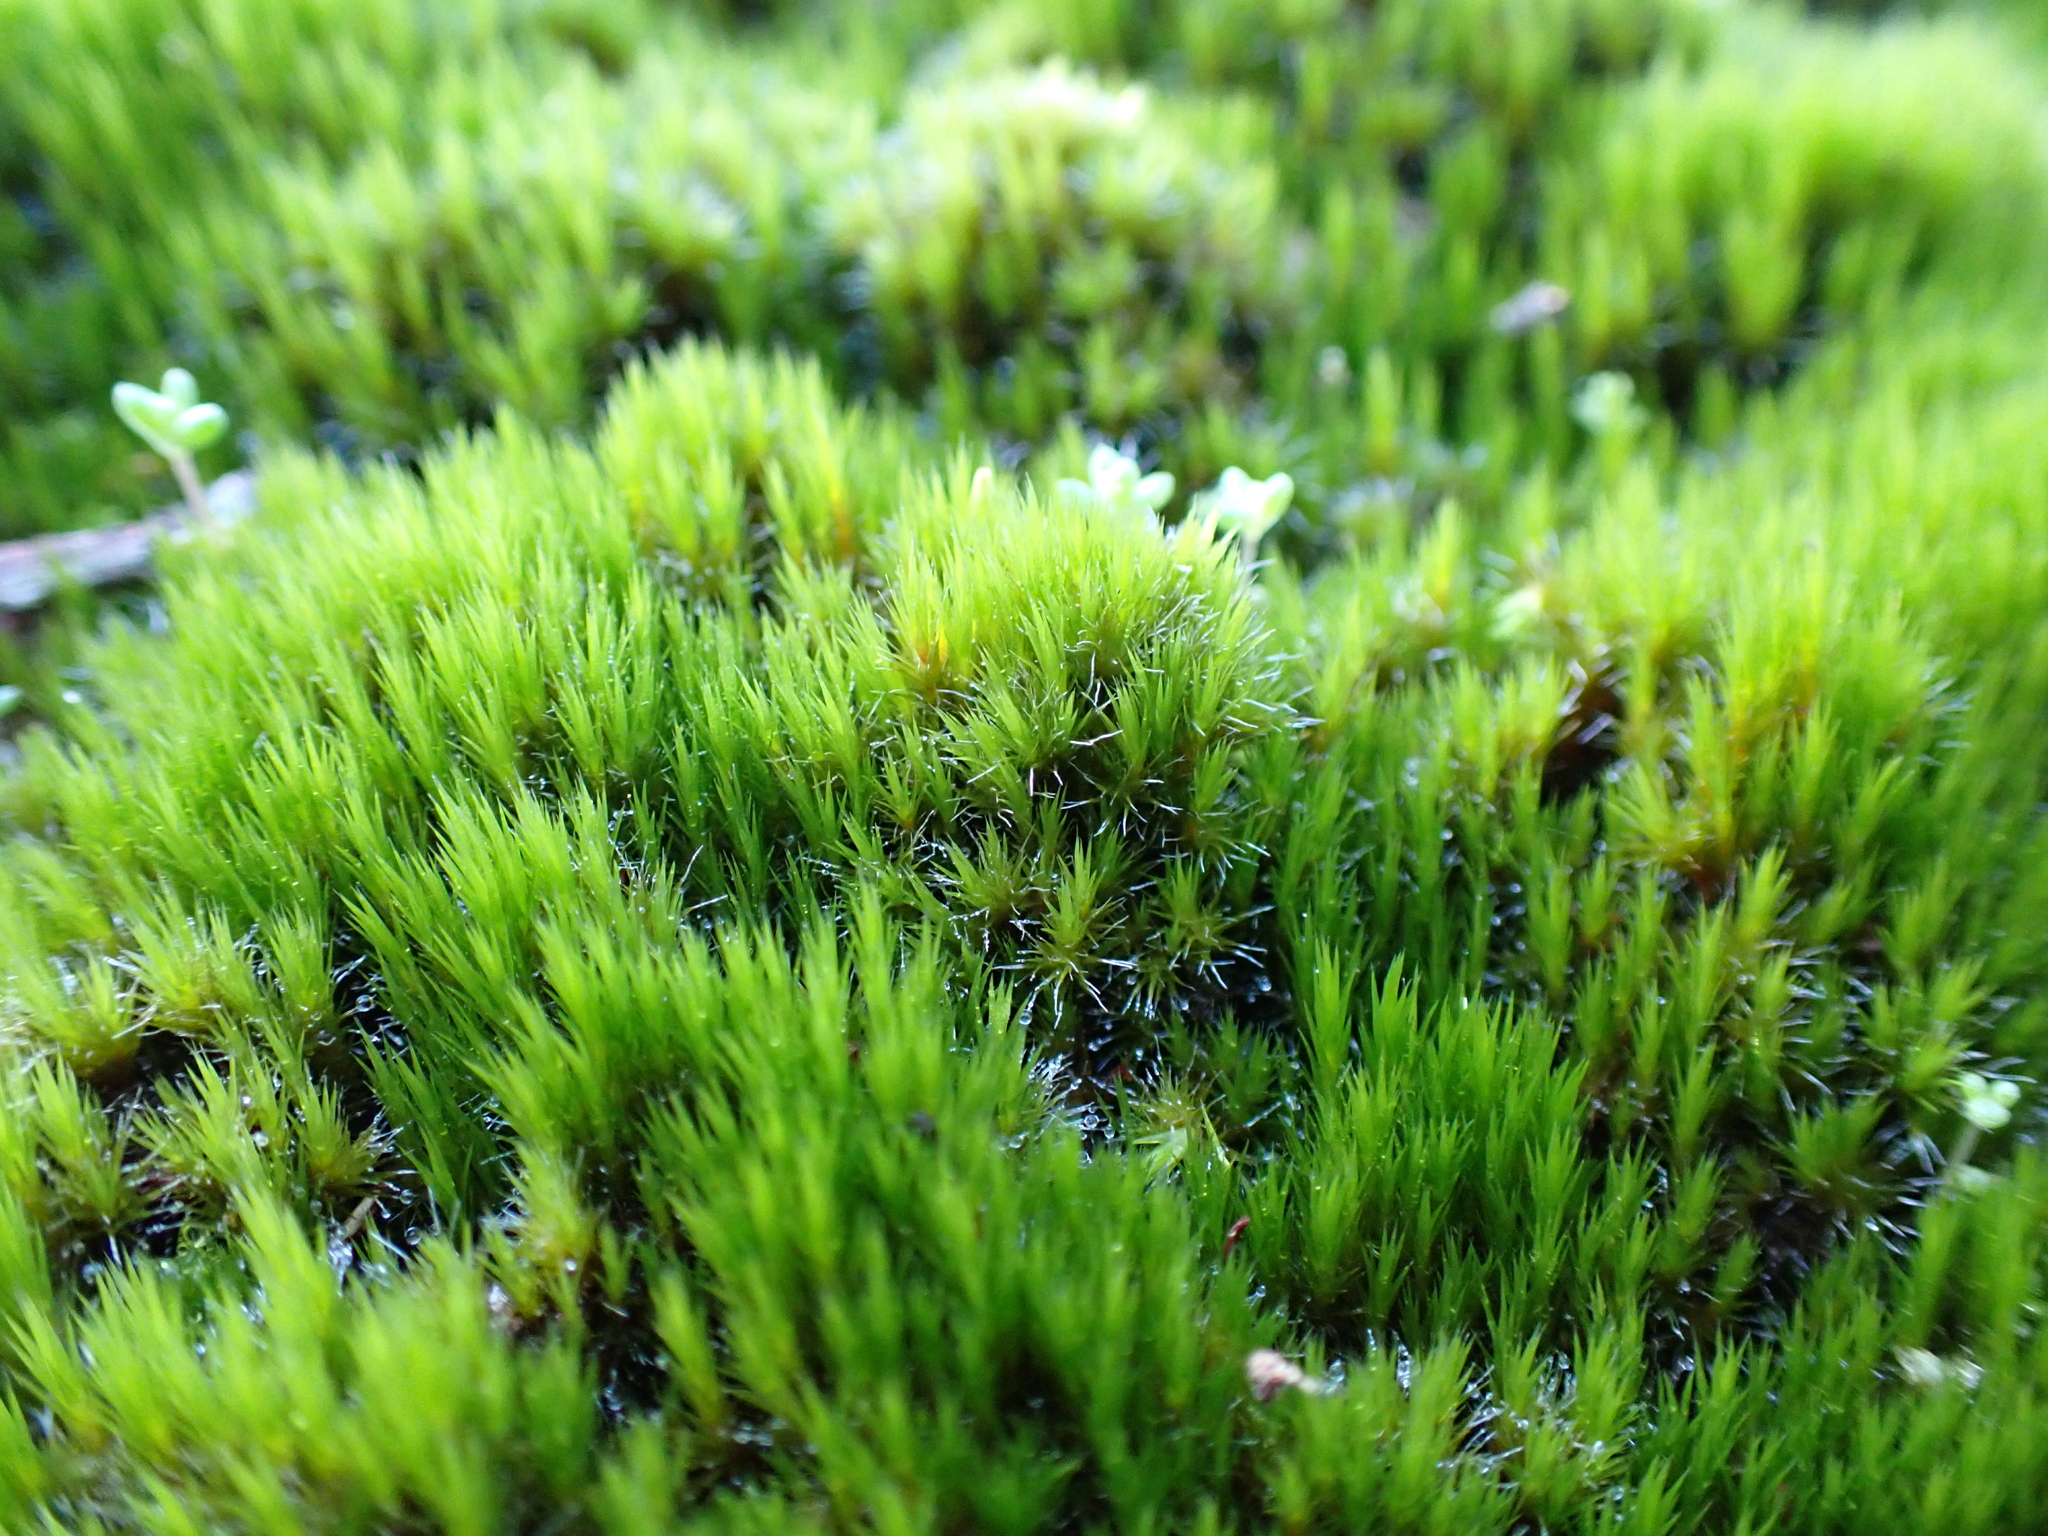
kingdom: Plantae
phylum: Bryophyta
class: Bryopsida
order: Dicranales
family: Leucobryaceae
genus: Campylopus
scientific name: Campylopus introflexus
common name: Heath star moss
